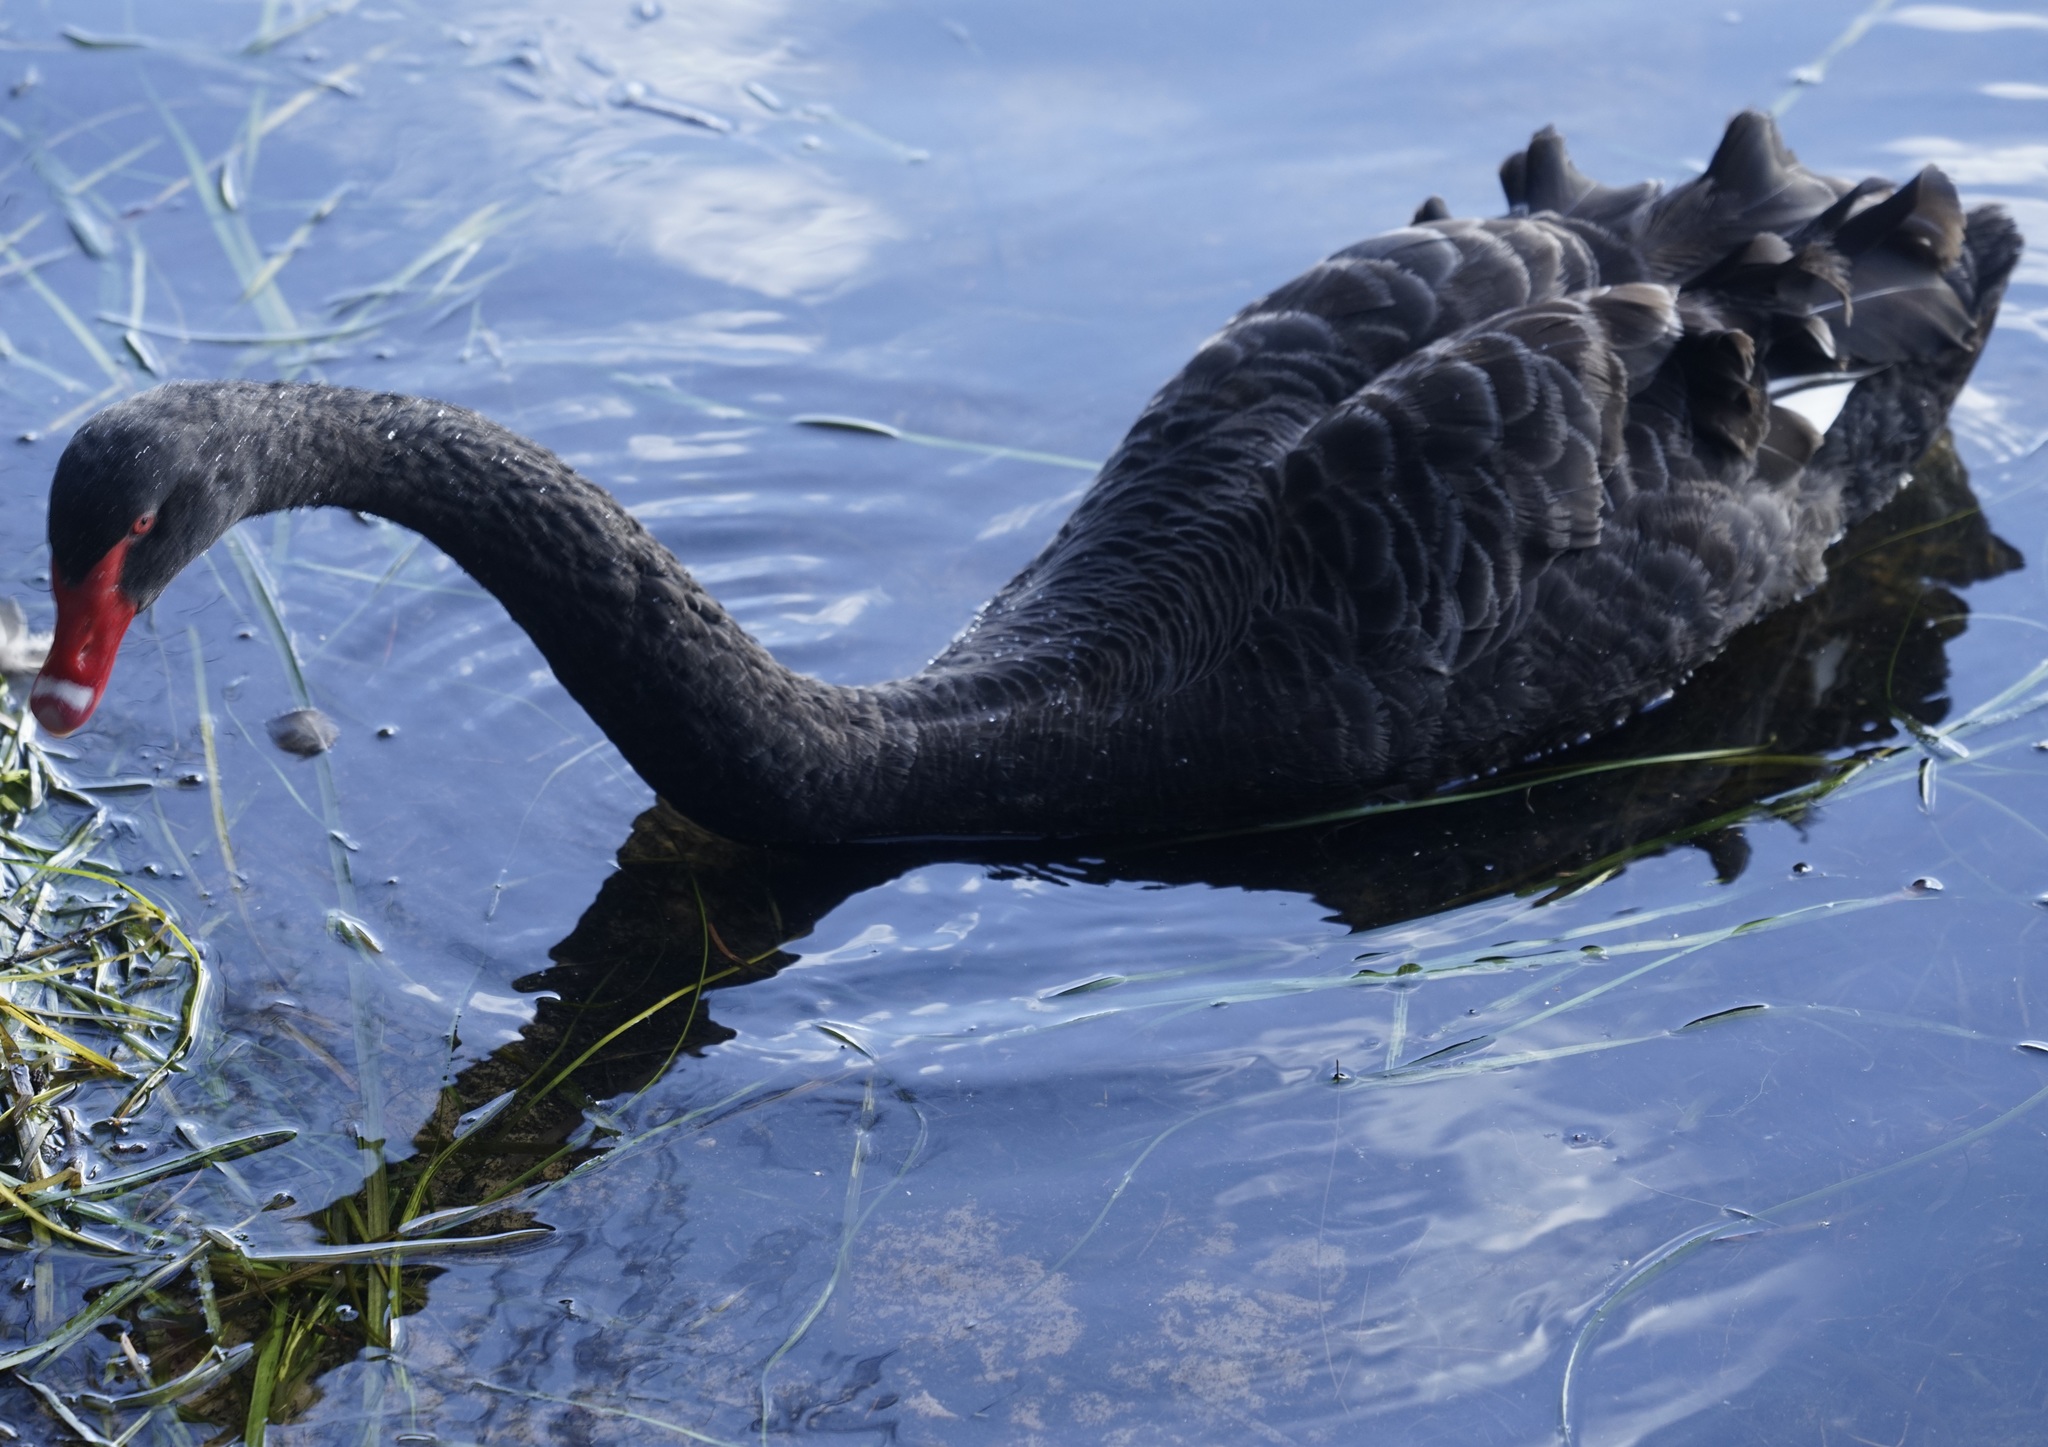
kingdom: Animalia
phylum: Chordata
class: Aves
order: Anseriformes
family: Anatidae
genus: Cygnus
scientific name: Cygnus atratus
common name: Black swan
